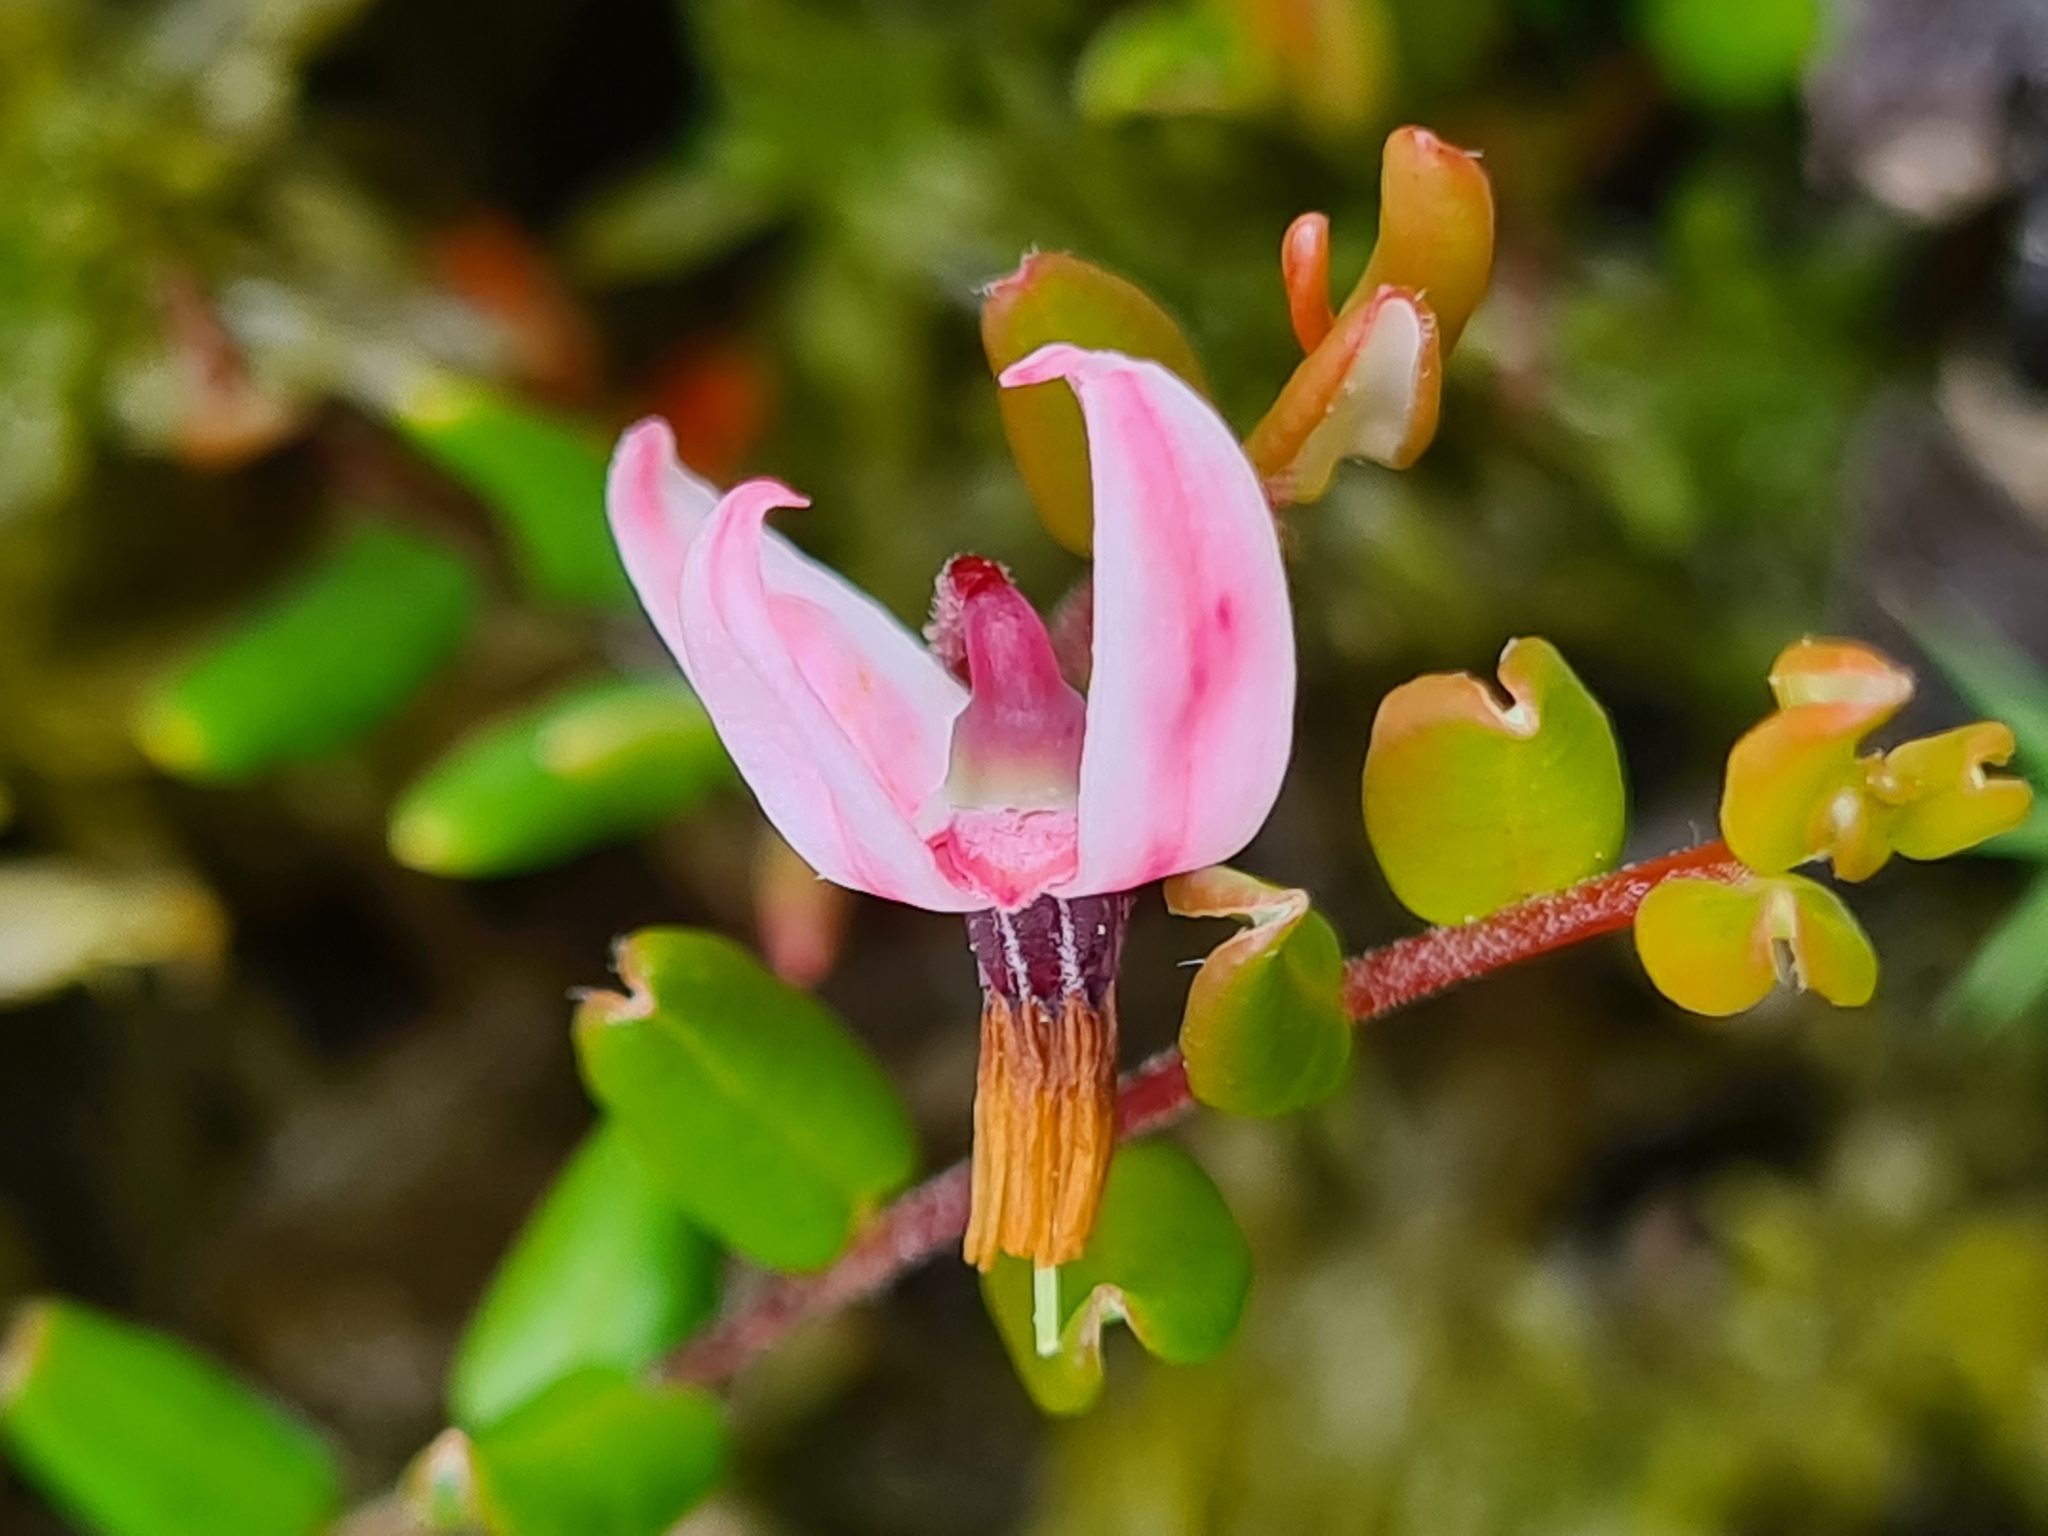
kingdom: Plantae
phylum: Tracheophyta
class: Magnoliopsida
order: Ericales
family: Ericaceae
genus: Vaccinium
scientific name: Vaccinium oxycoccos
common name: Cranberry
